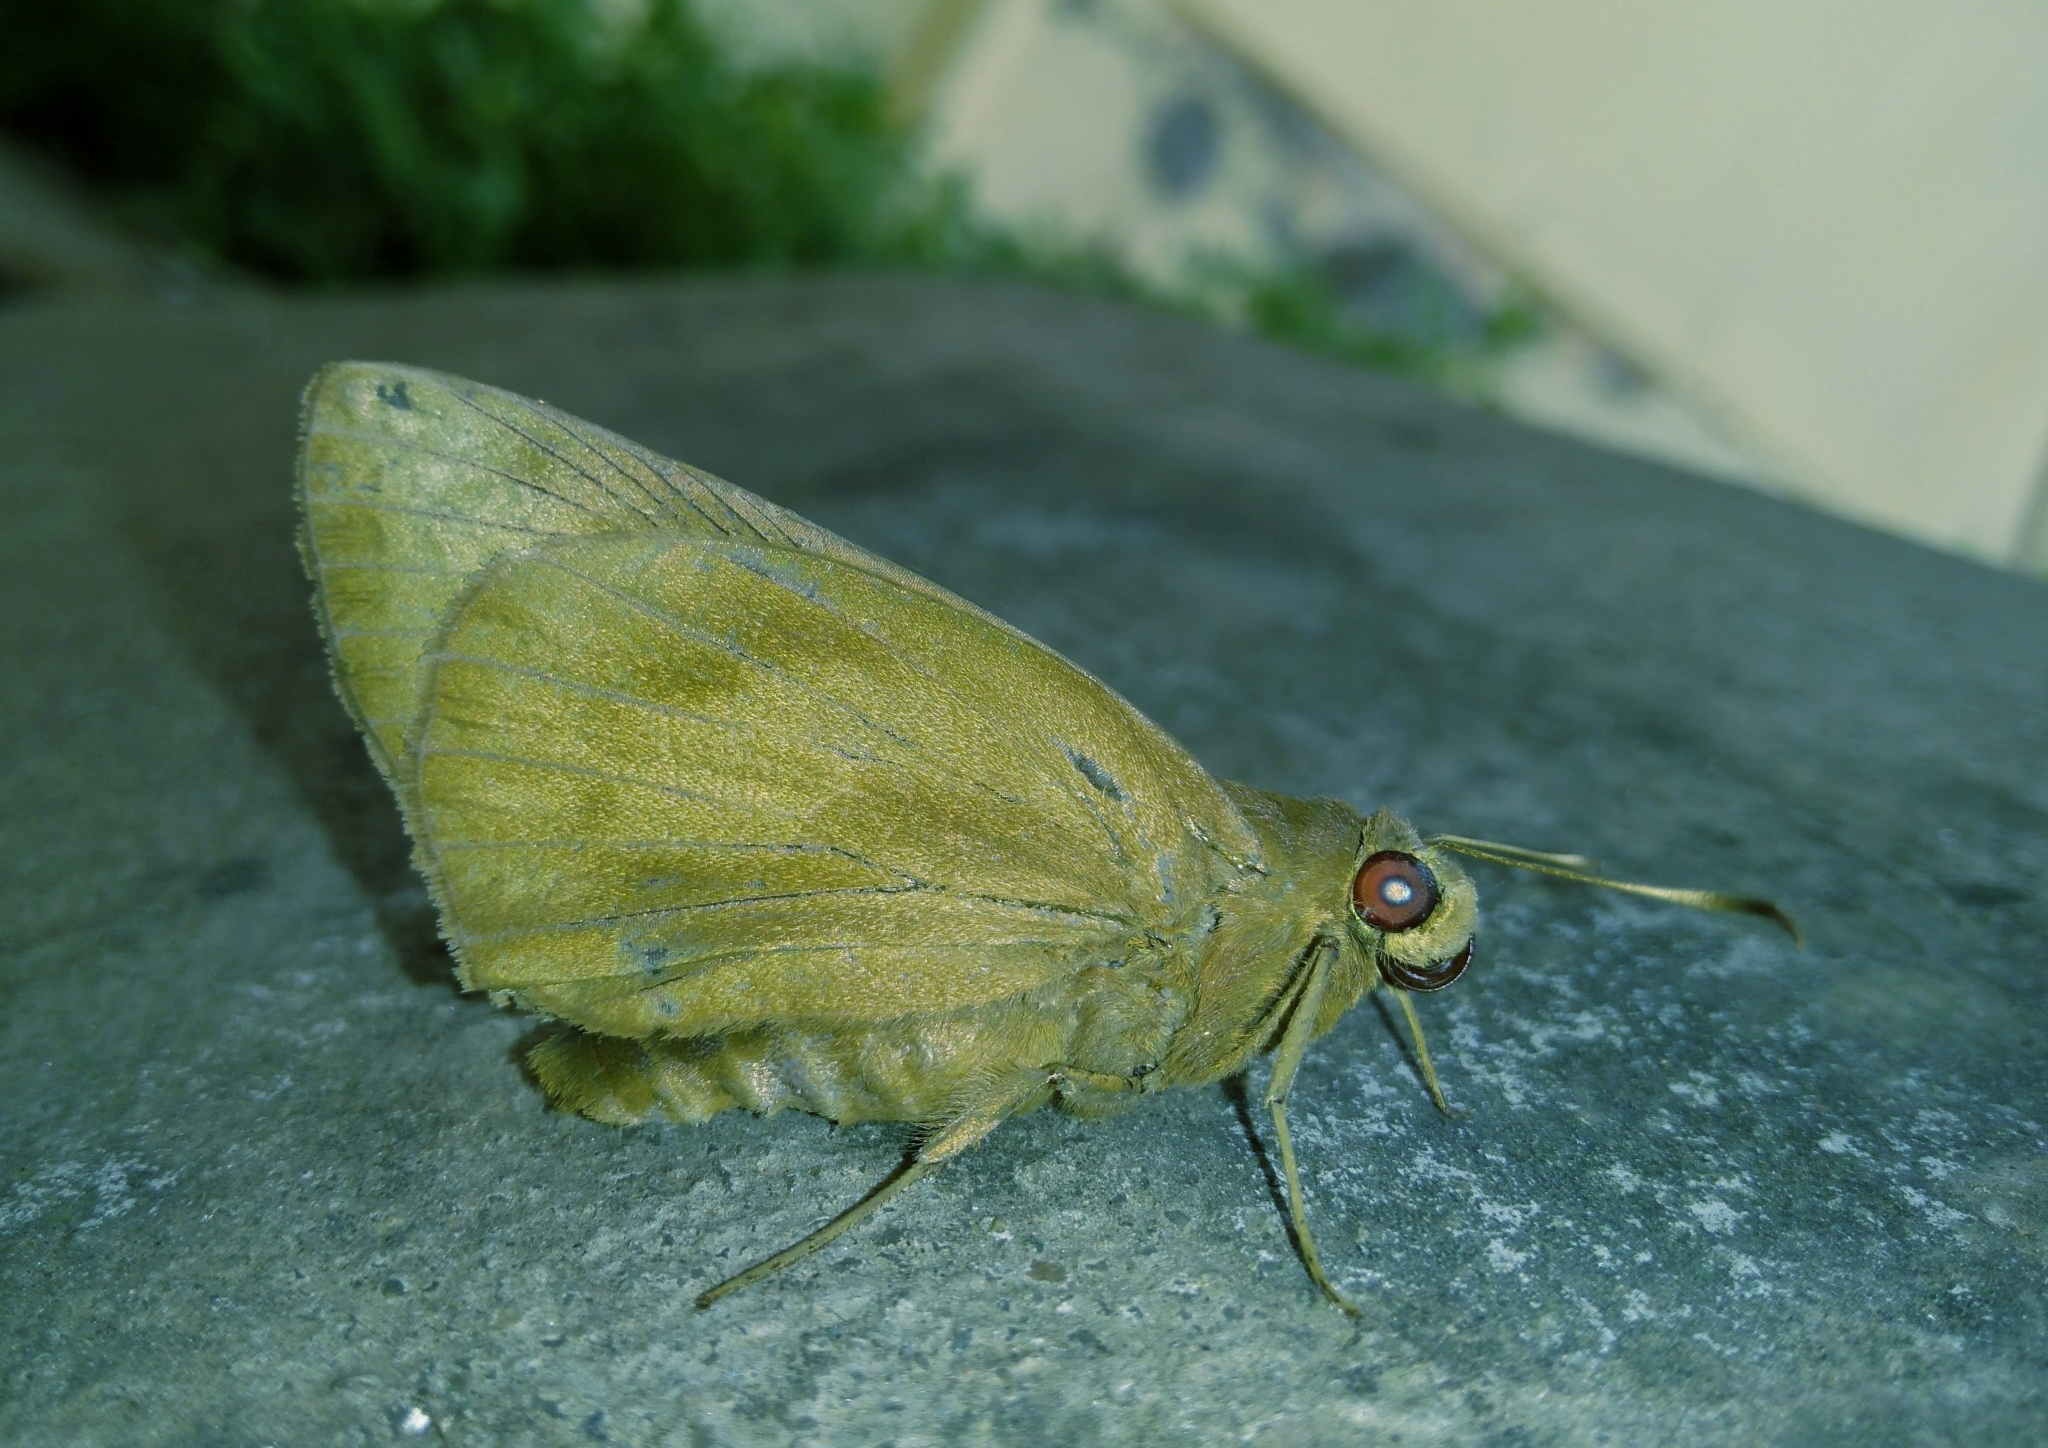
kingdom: Animalia
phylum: Arthropoda
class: Insecta
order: Lepidoptera
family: Hesperiidae
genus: Erionota
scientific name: Erionota torus
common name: Rounded palm-redeye
